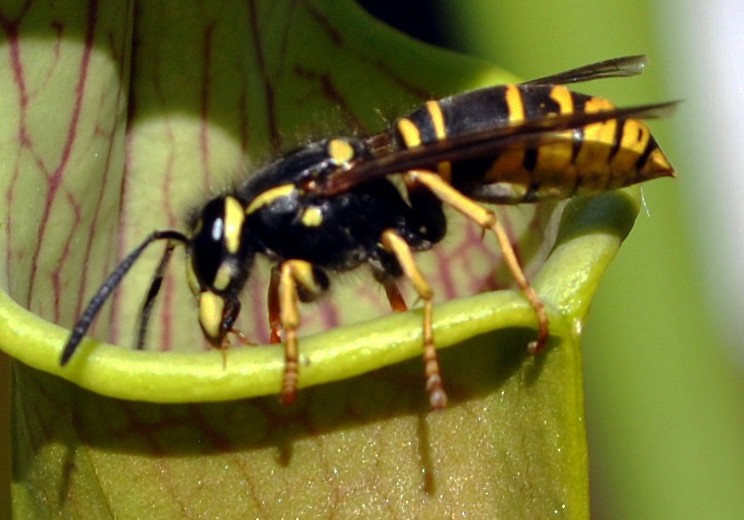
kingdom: Animalia
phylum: Arthropoda
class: Insecta
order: Hymenoptera
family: Vespidae
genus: Vespula
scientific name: Vespula vidua
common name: Widow yellowjacket
